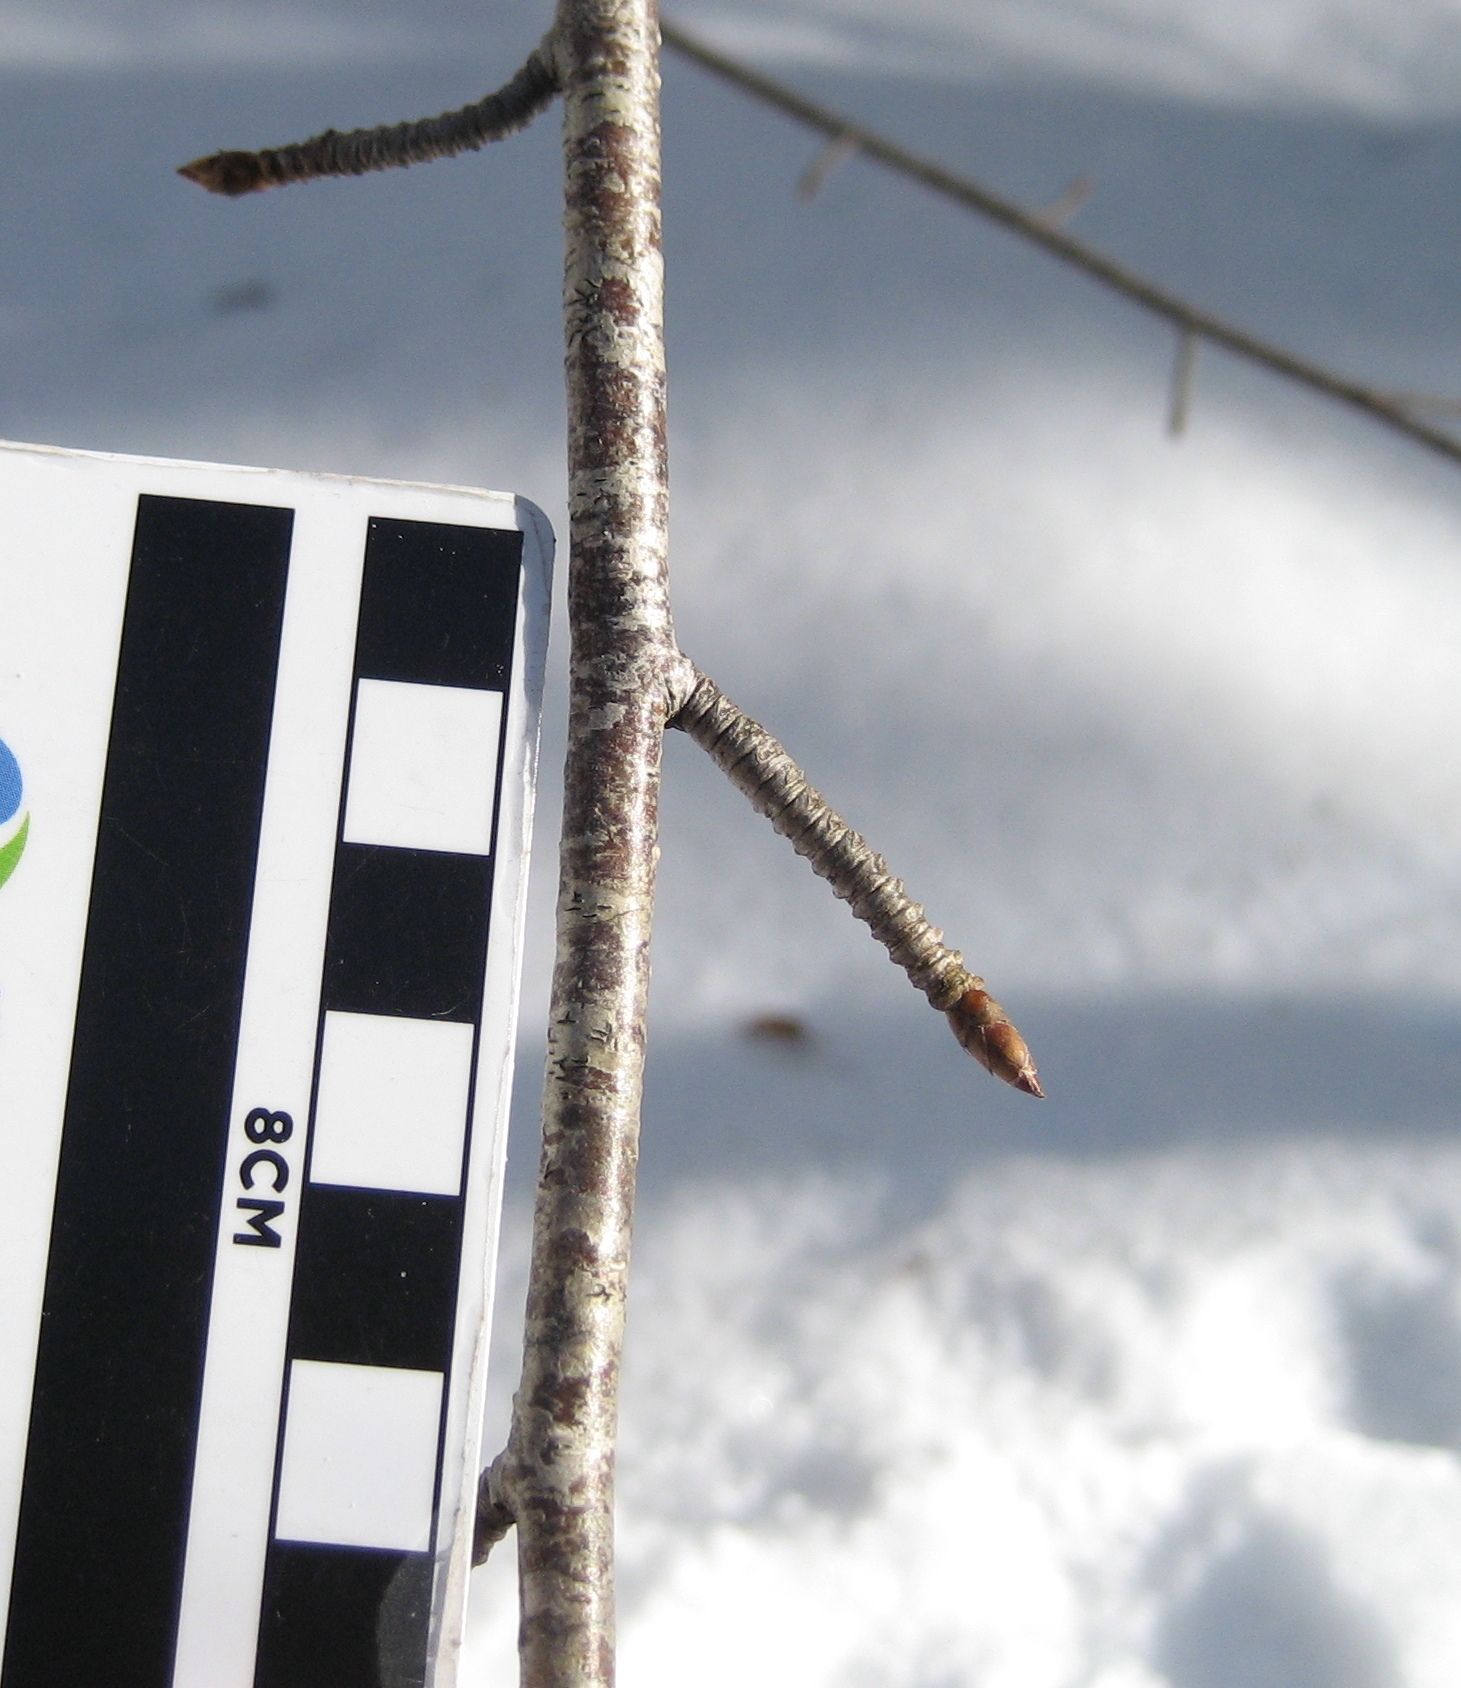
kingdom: Plantae
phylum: Tracheophyta
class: Magnoliopsida
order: Fagales
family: Betulaceae
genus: Betula
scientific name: Betula alleghaniensis
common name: Yellow birch
